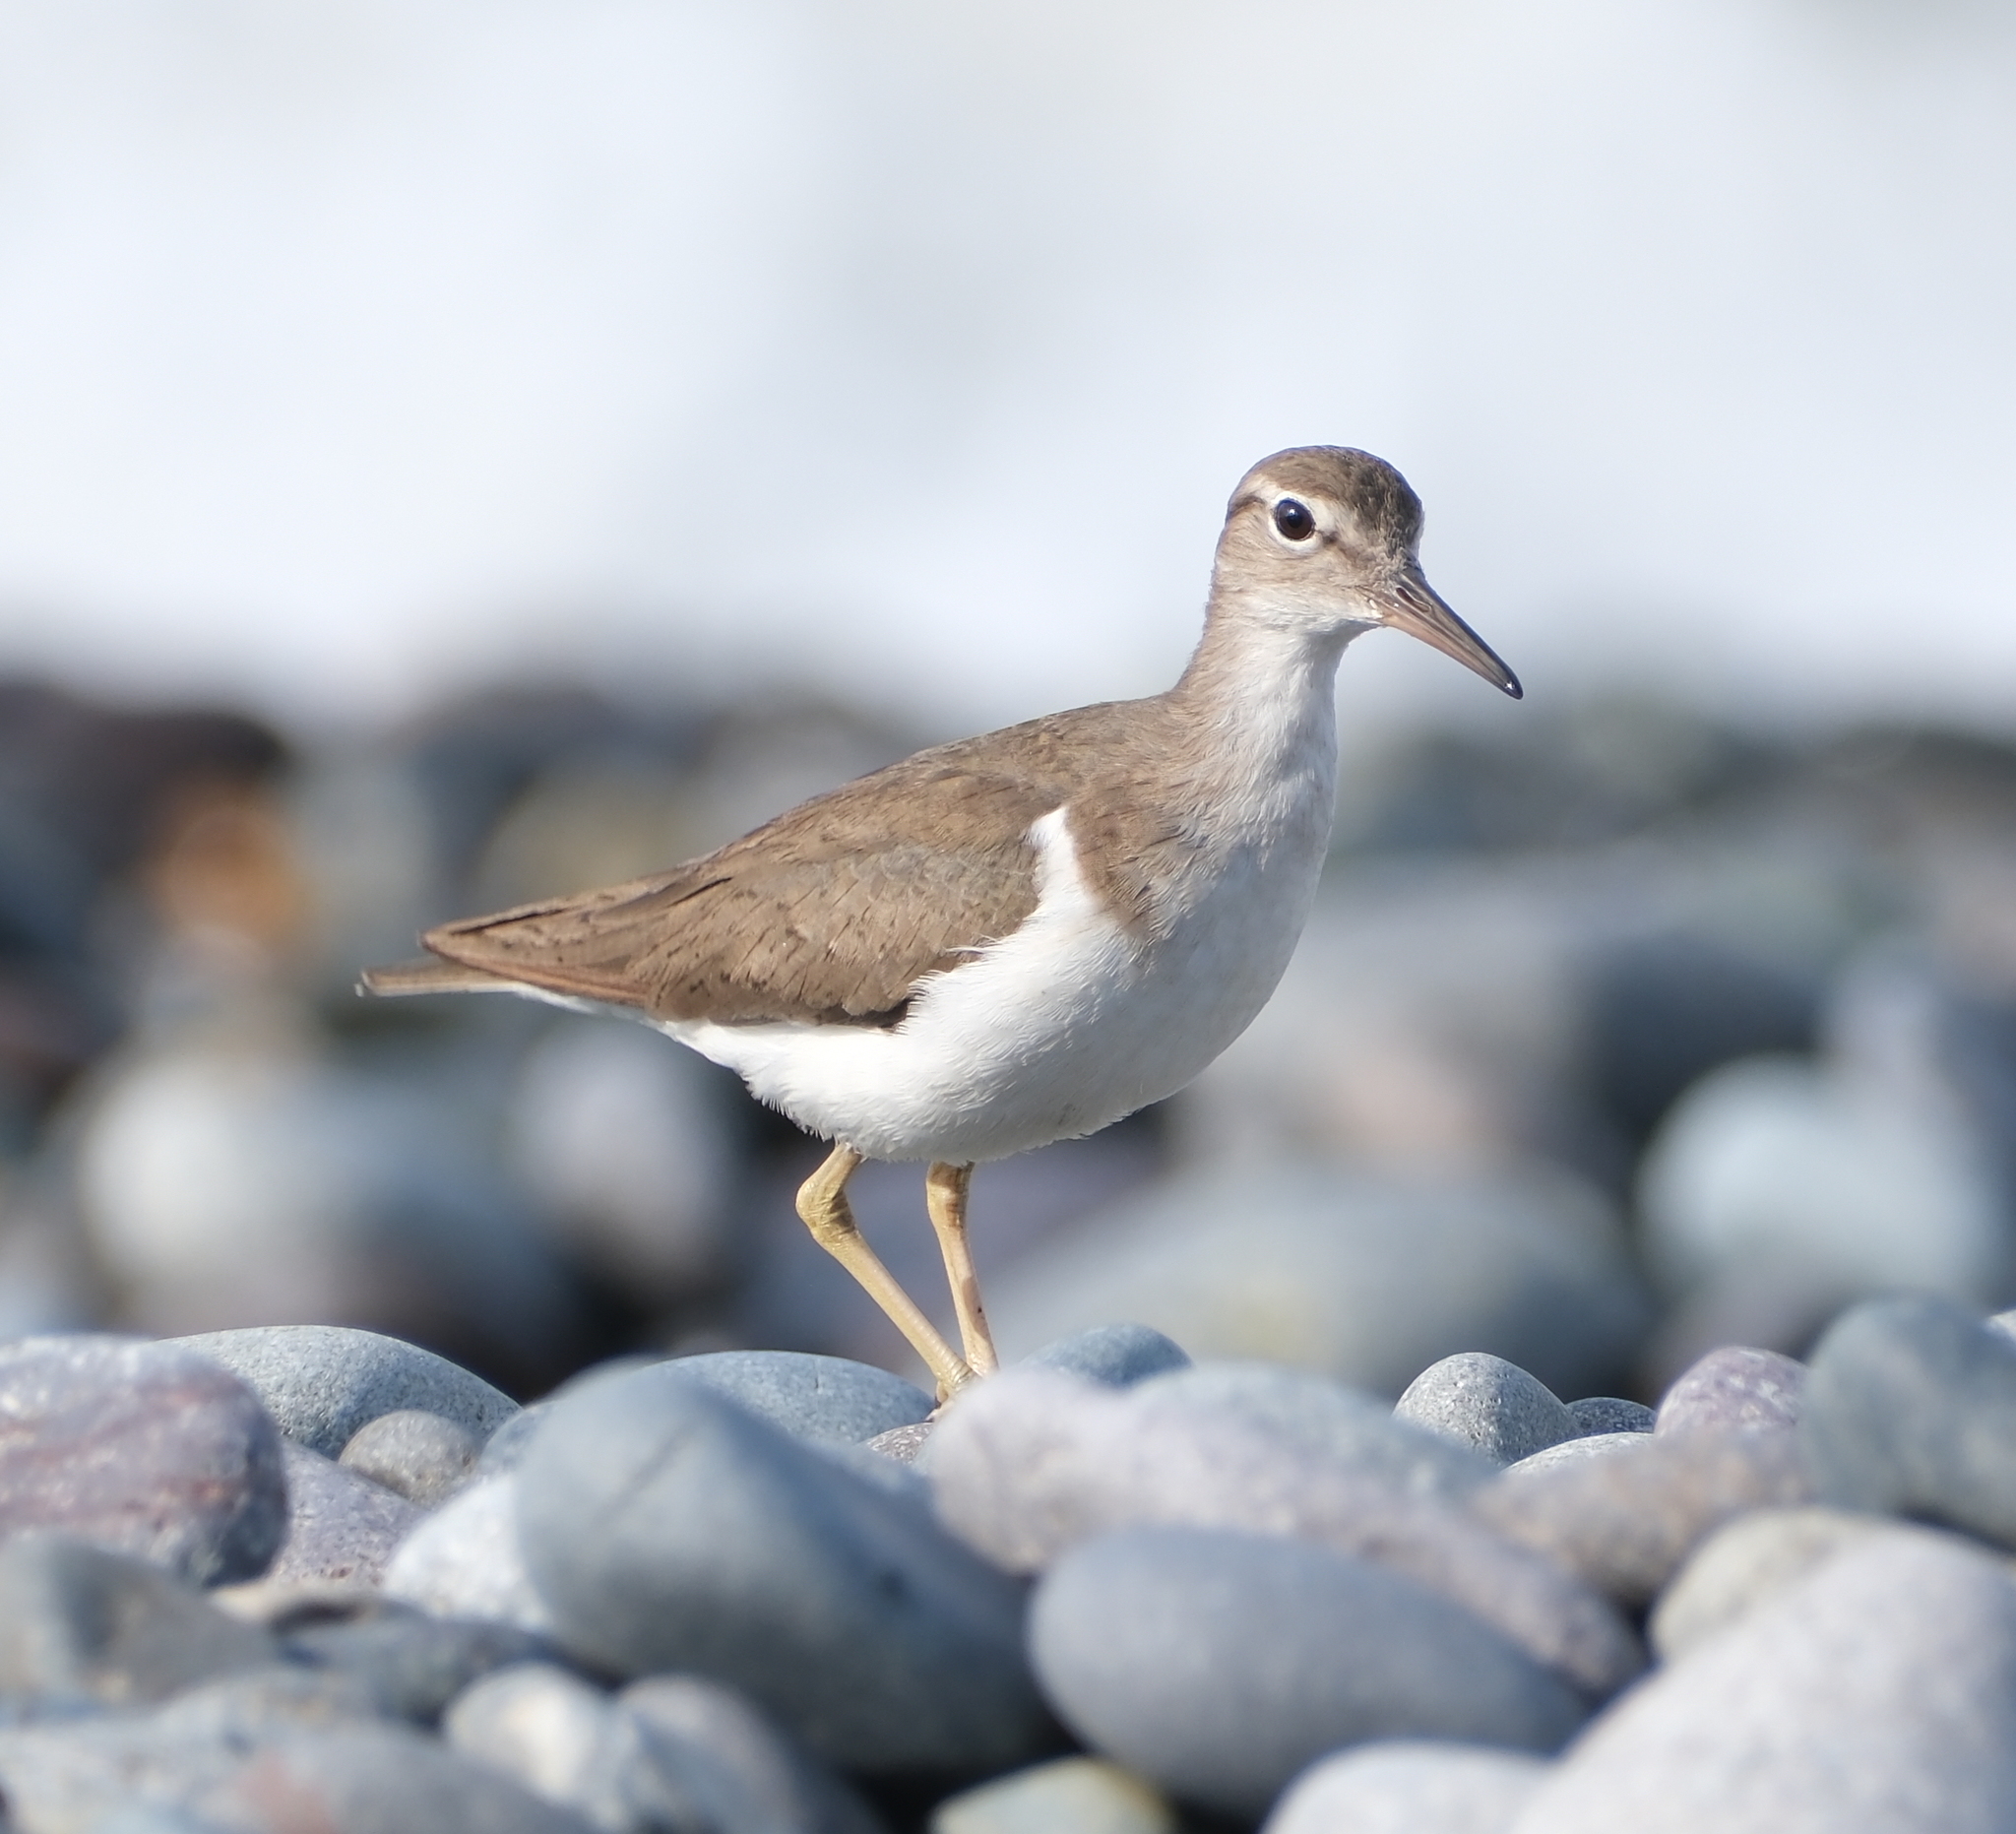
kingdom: Animalia
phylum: Chordata
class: Aves
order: Charadriiformes
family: Scolopacidae
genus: Actitis
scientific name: Actitis macularius
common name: Spotted sandpiper
